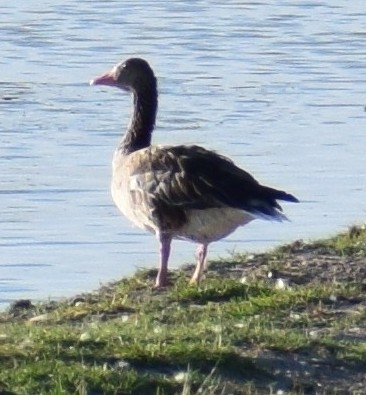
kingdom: Animalia
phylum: Chordata
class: Aves
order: Anseriformes
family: Anatidae
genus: Anser
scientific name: Anser anser
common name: Greylag goose
